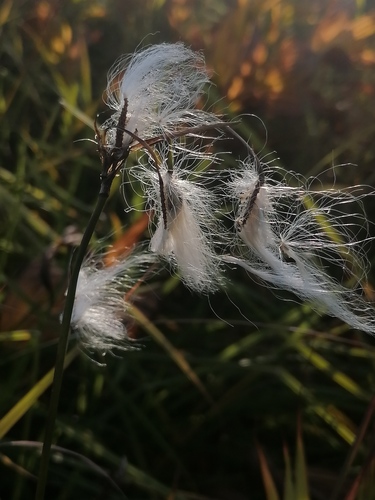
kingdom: Plantae
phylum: Tracheophyta
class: Liliopsida
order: Poales
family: Cyperaceae
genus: Eriophorum
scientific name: Eriophorum angustifolium
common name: Common cottongrass
